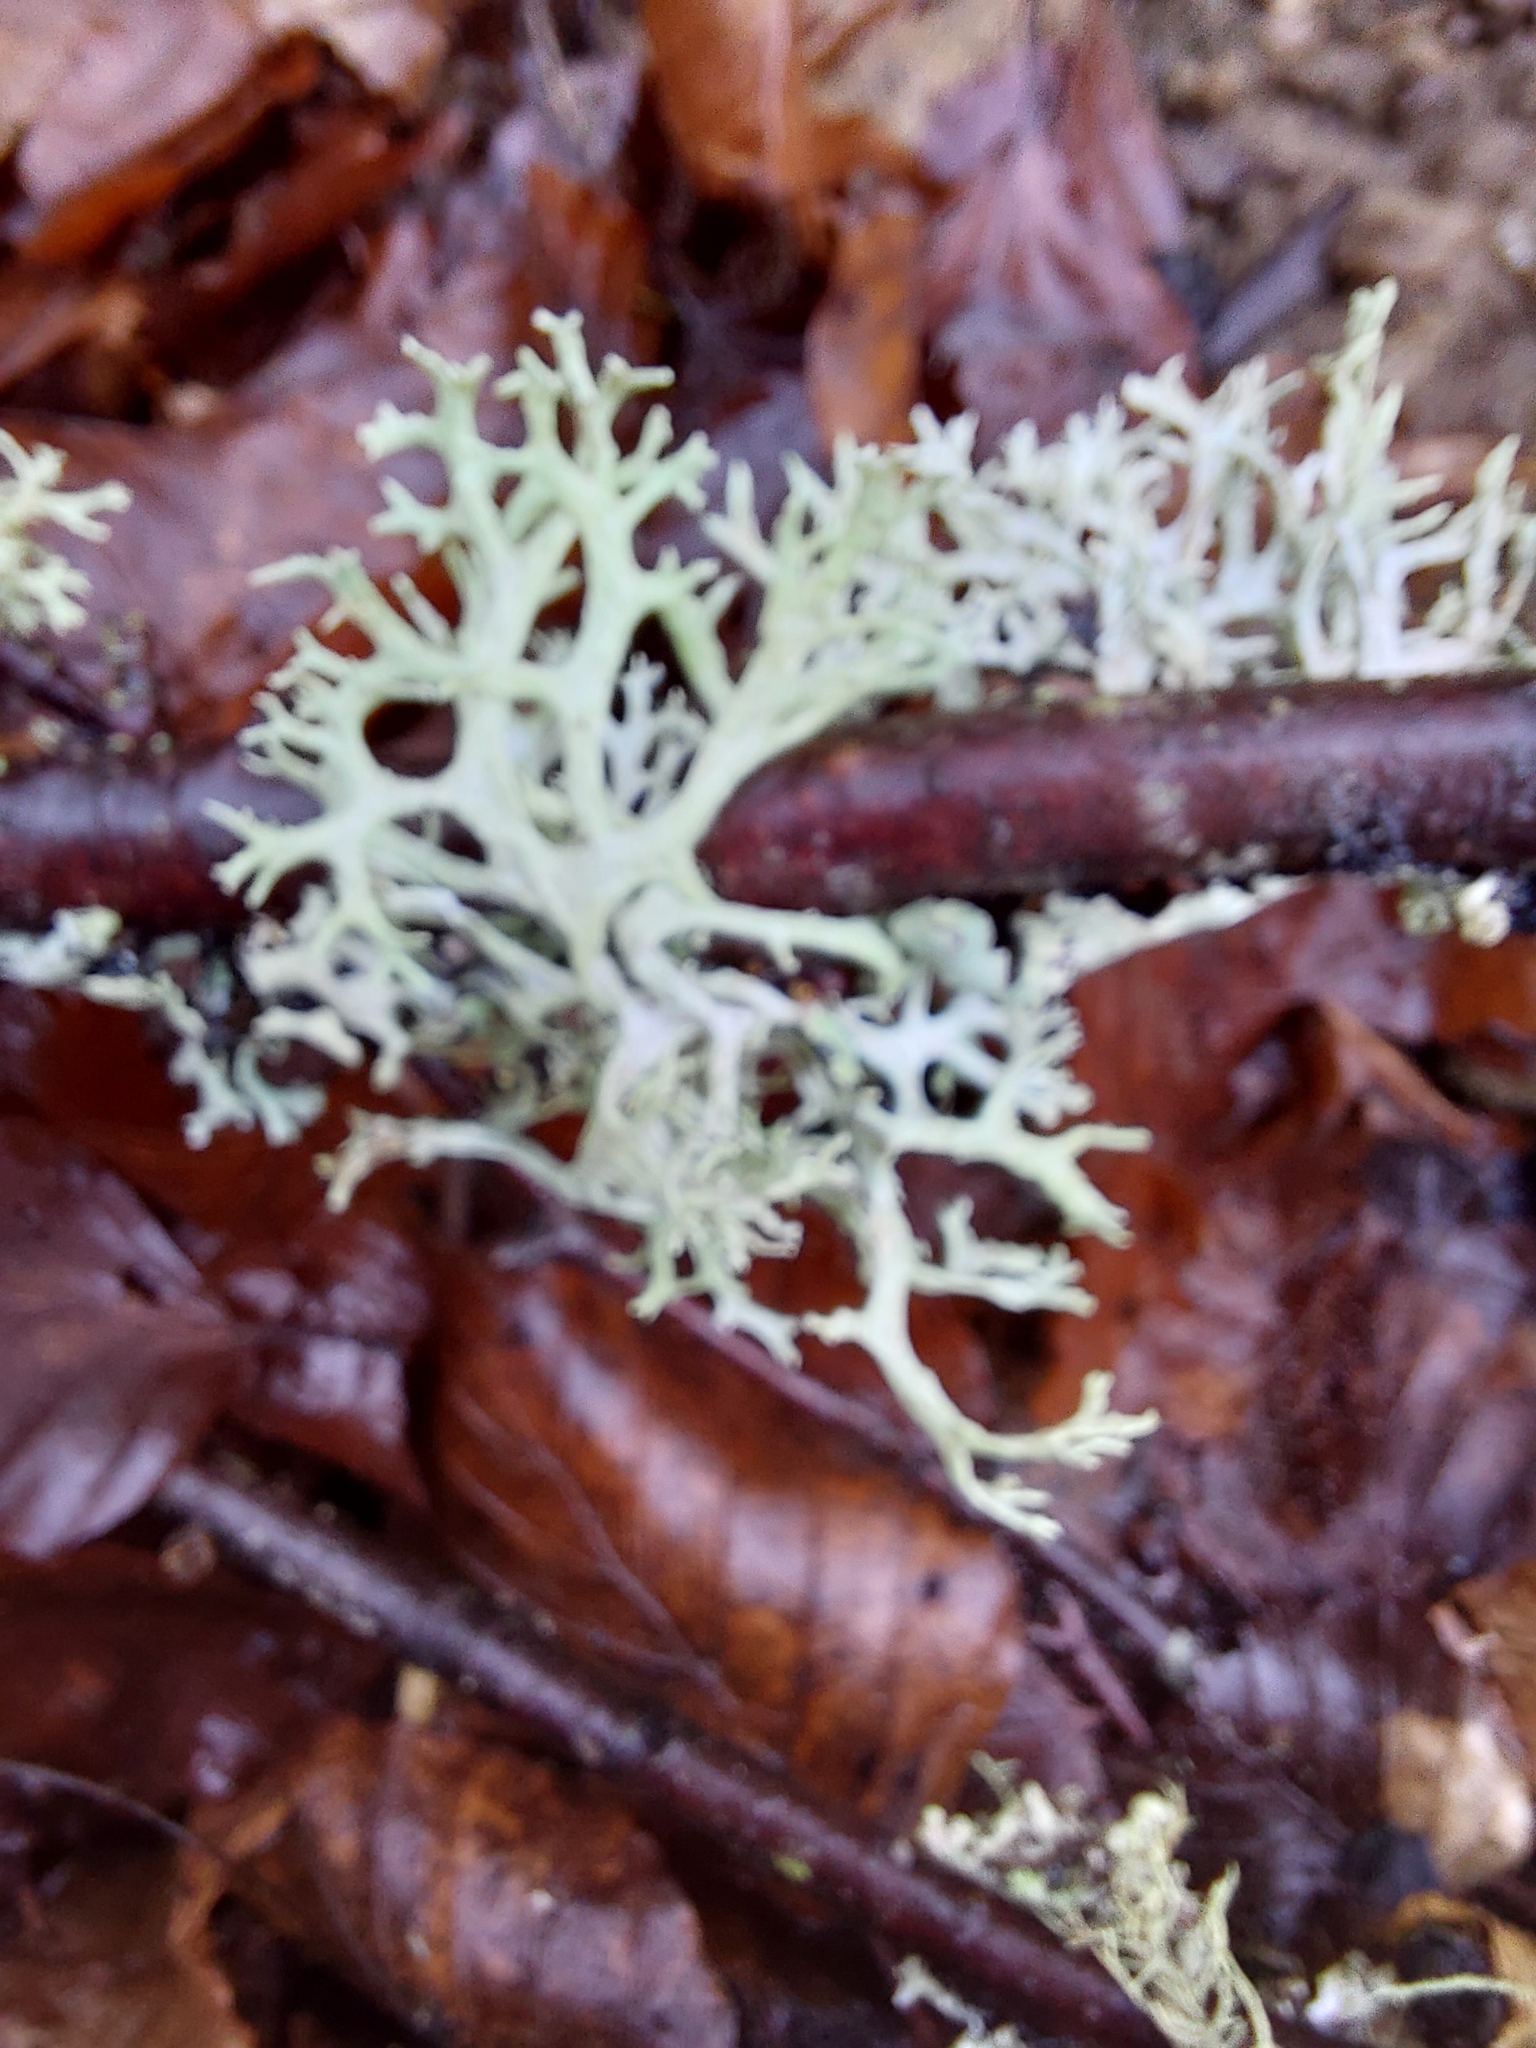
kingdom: Fungi
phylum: Ascomycota
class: Lecanoromycetes
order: Lecanorales
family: Parmeliaceae
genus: Evernia
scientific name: Evernia prunastri
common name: Oak moss
